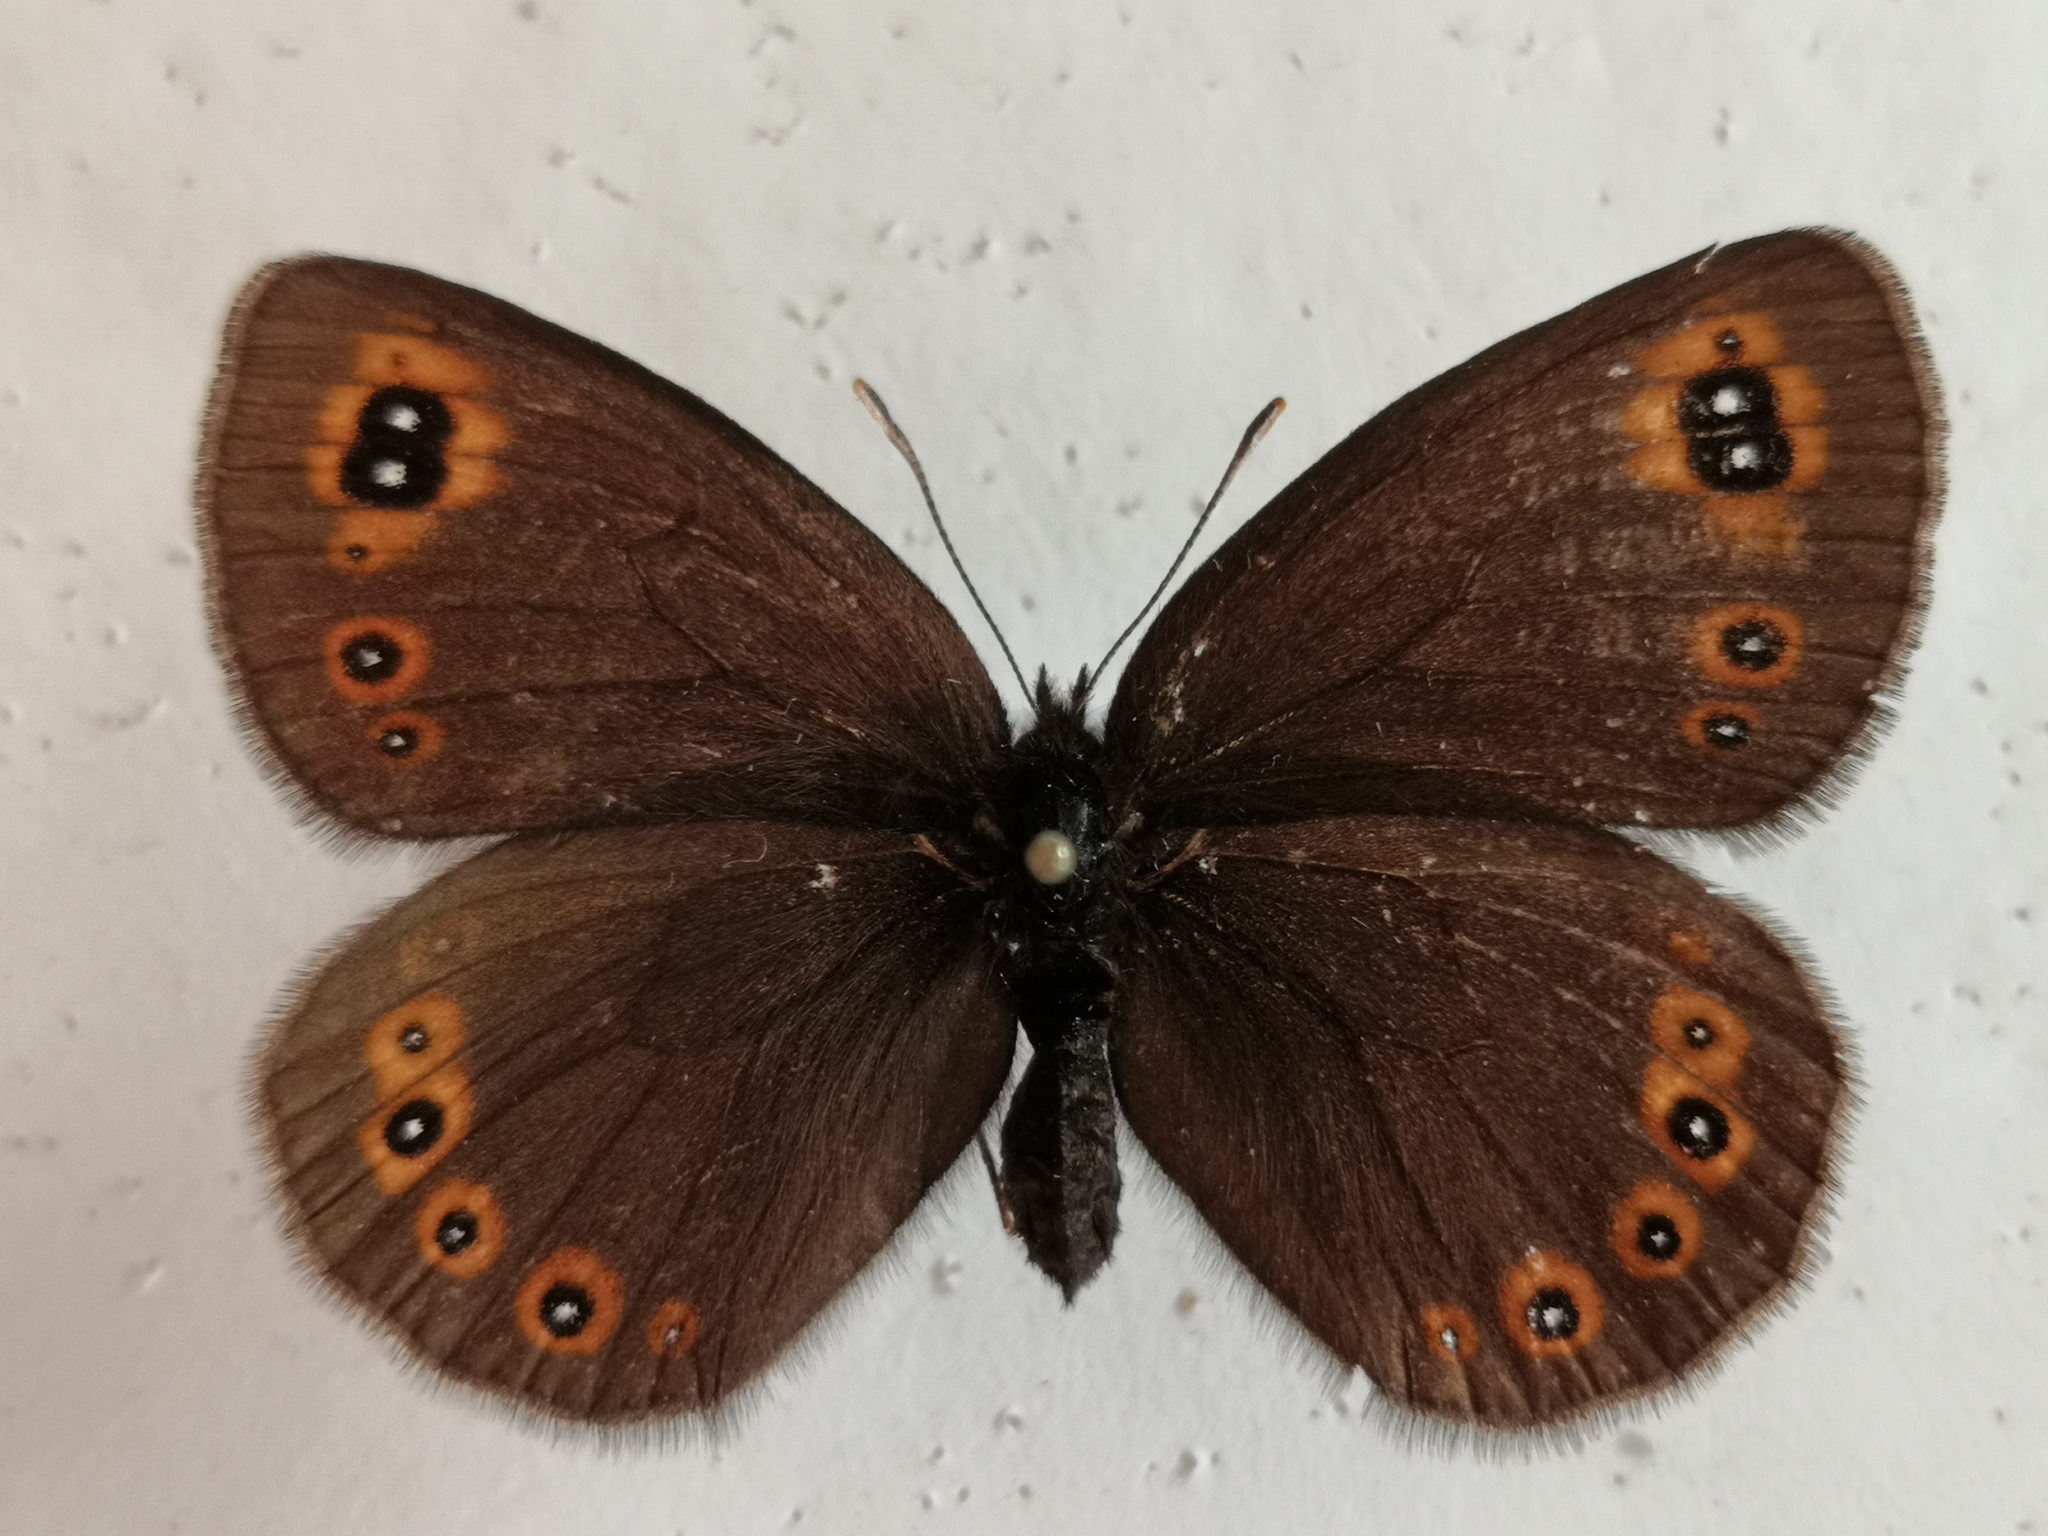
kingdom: Animalia
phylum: Arthropoda
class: Insecta
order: Lepidoptera
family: Nymphalidae
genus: Erebia
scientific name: Erebia medusa
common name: Woodland ringlet
